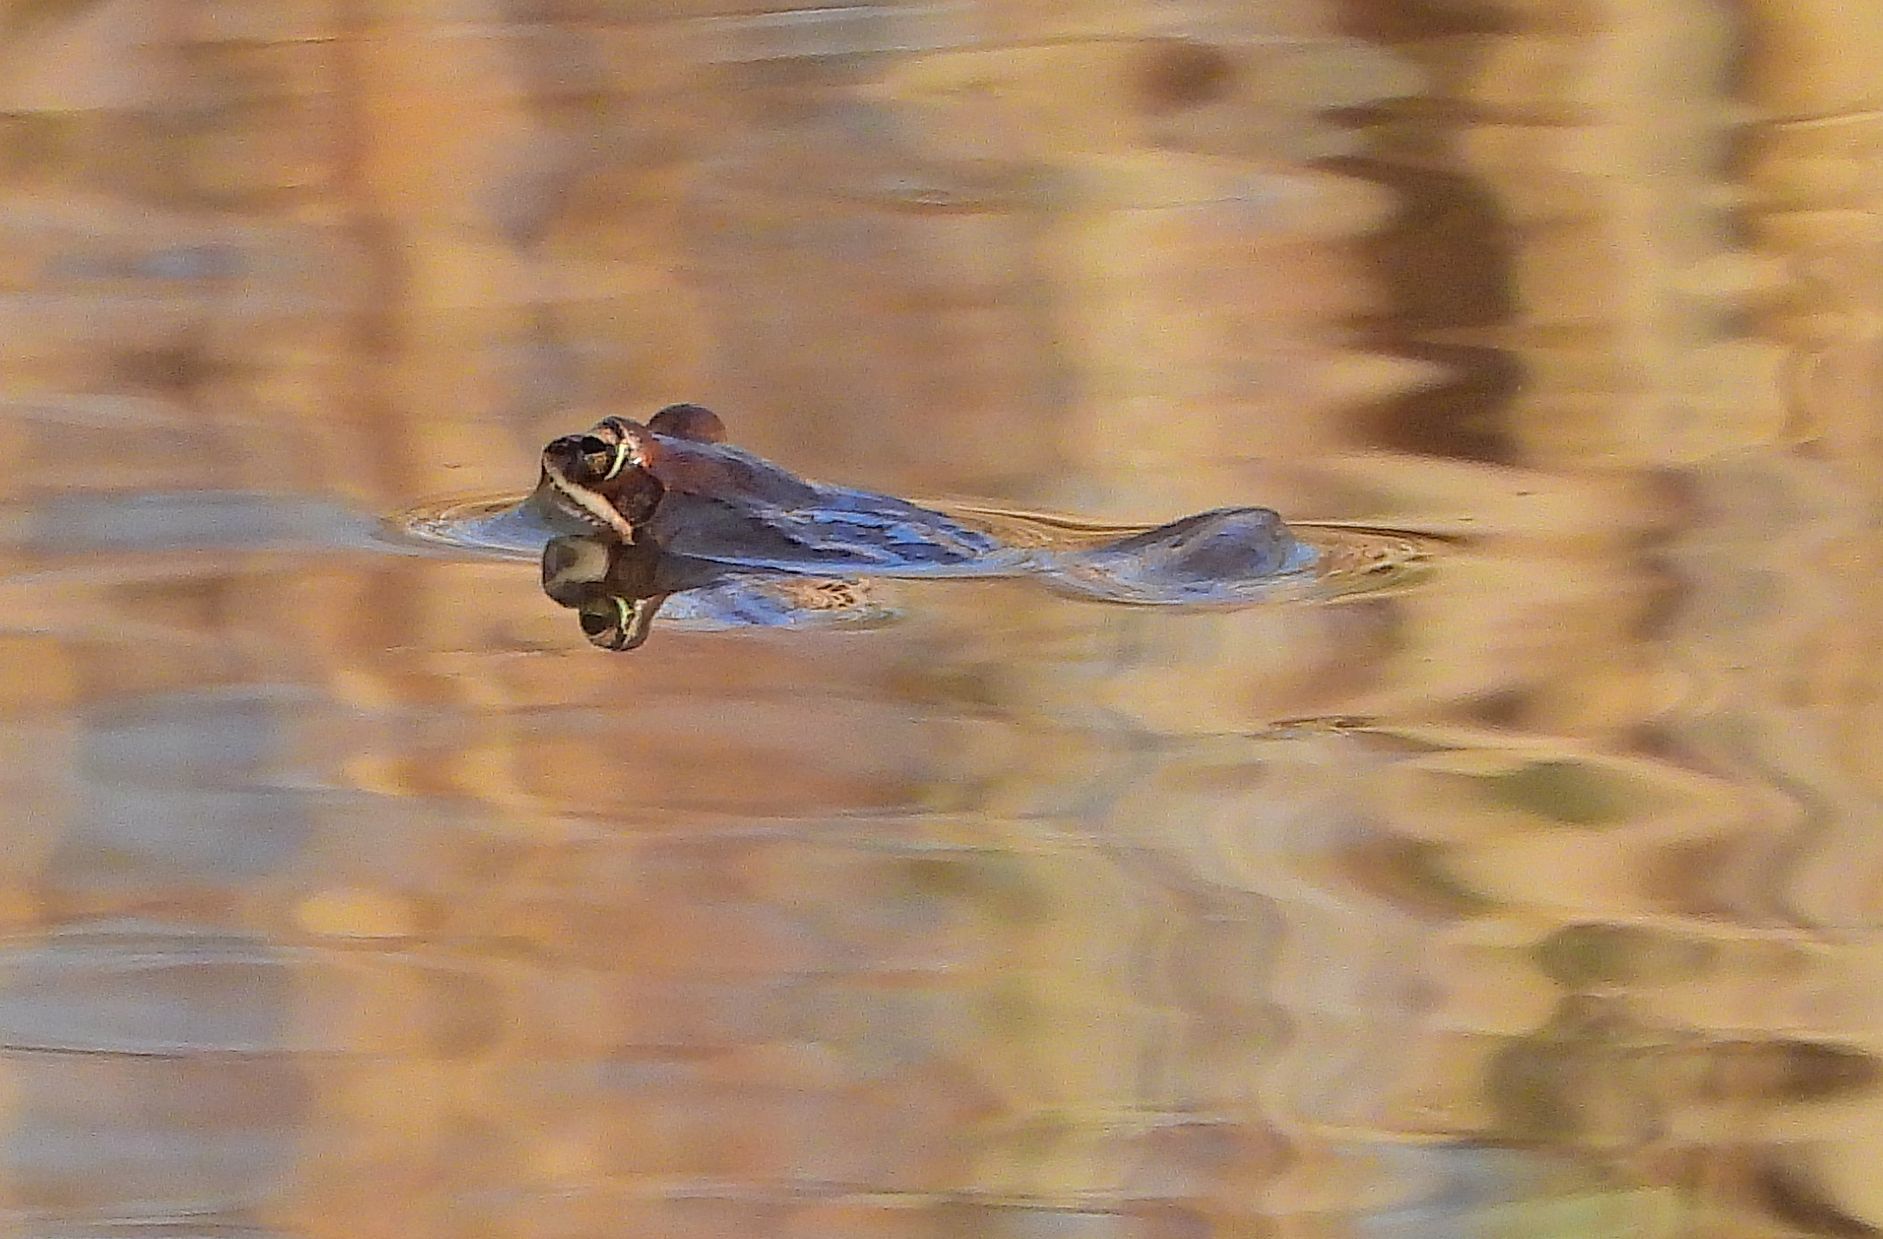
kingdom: Animalia
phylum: Chordata
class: Amphibia
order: Anura
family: Ranidae
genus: Lithobates
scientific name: Lithobates sylvaticus
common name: Wood frog
